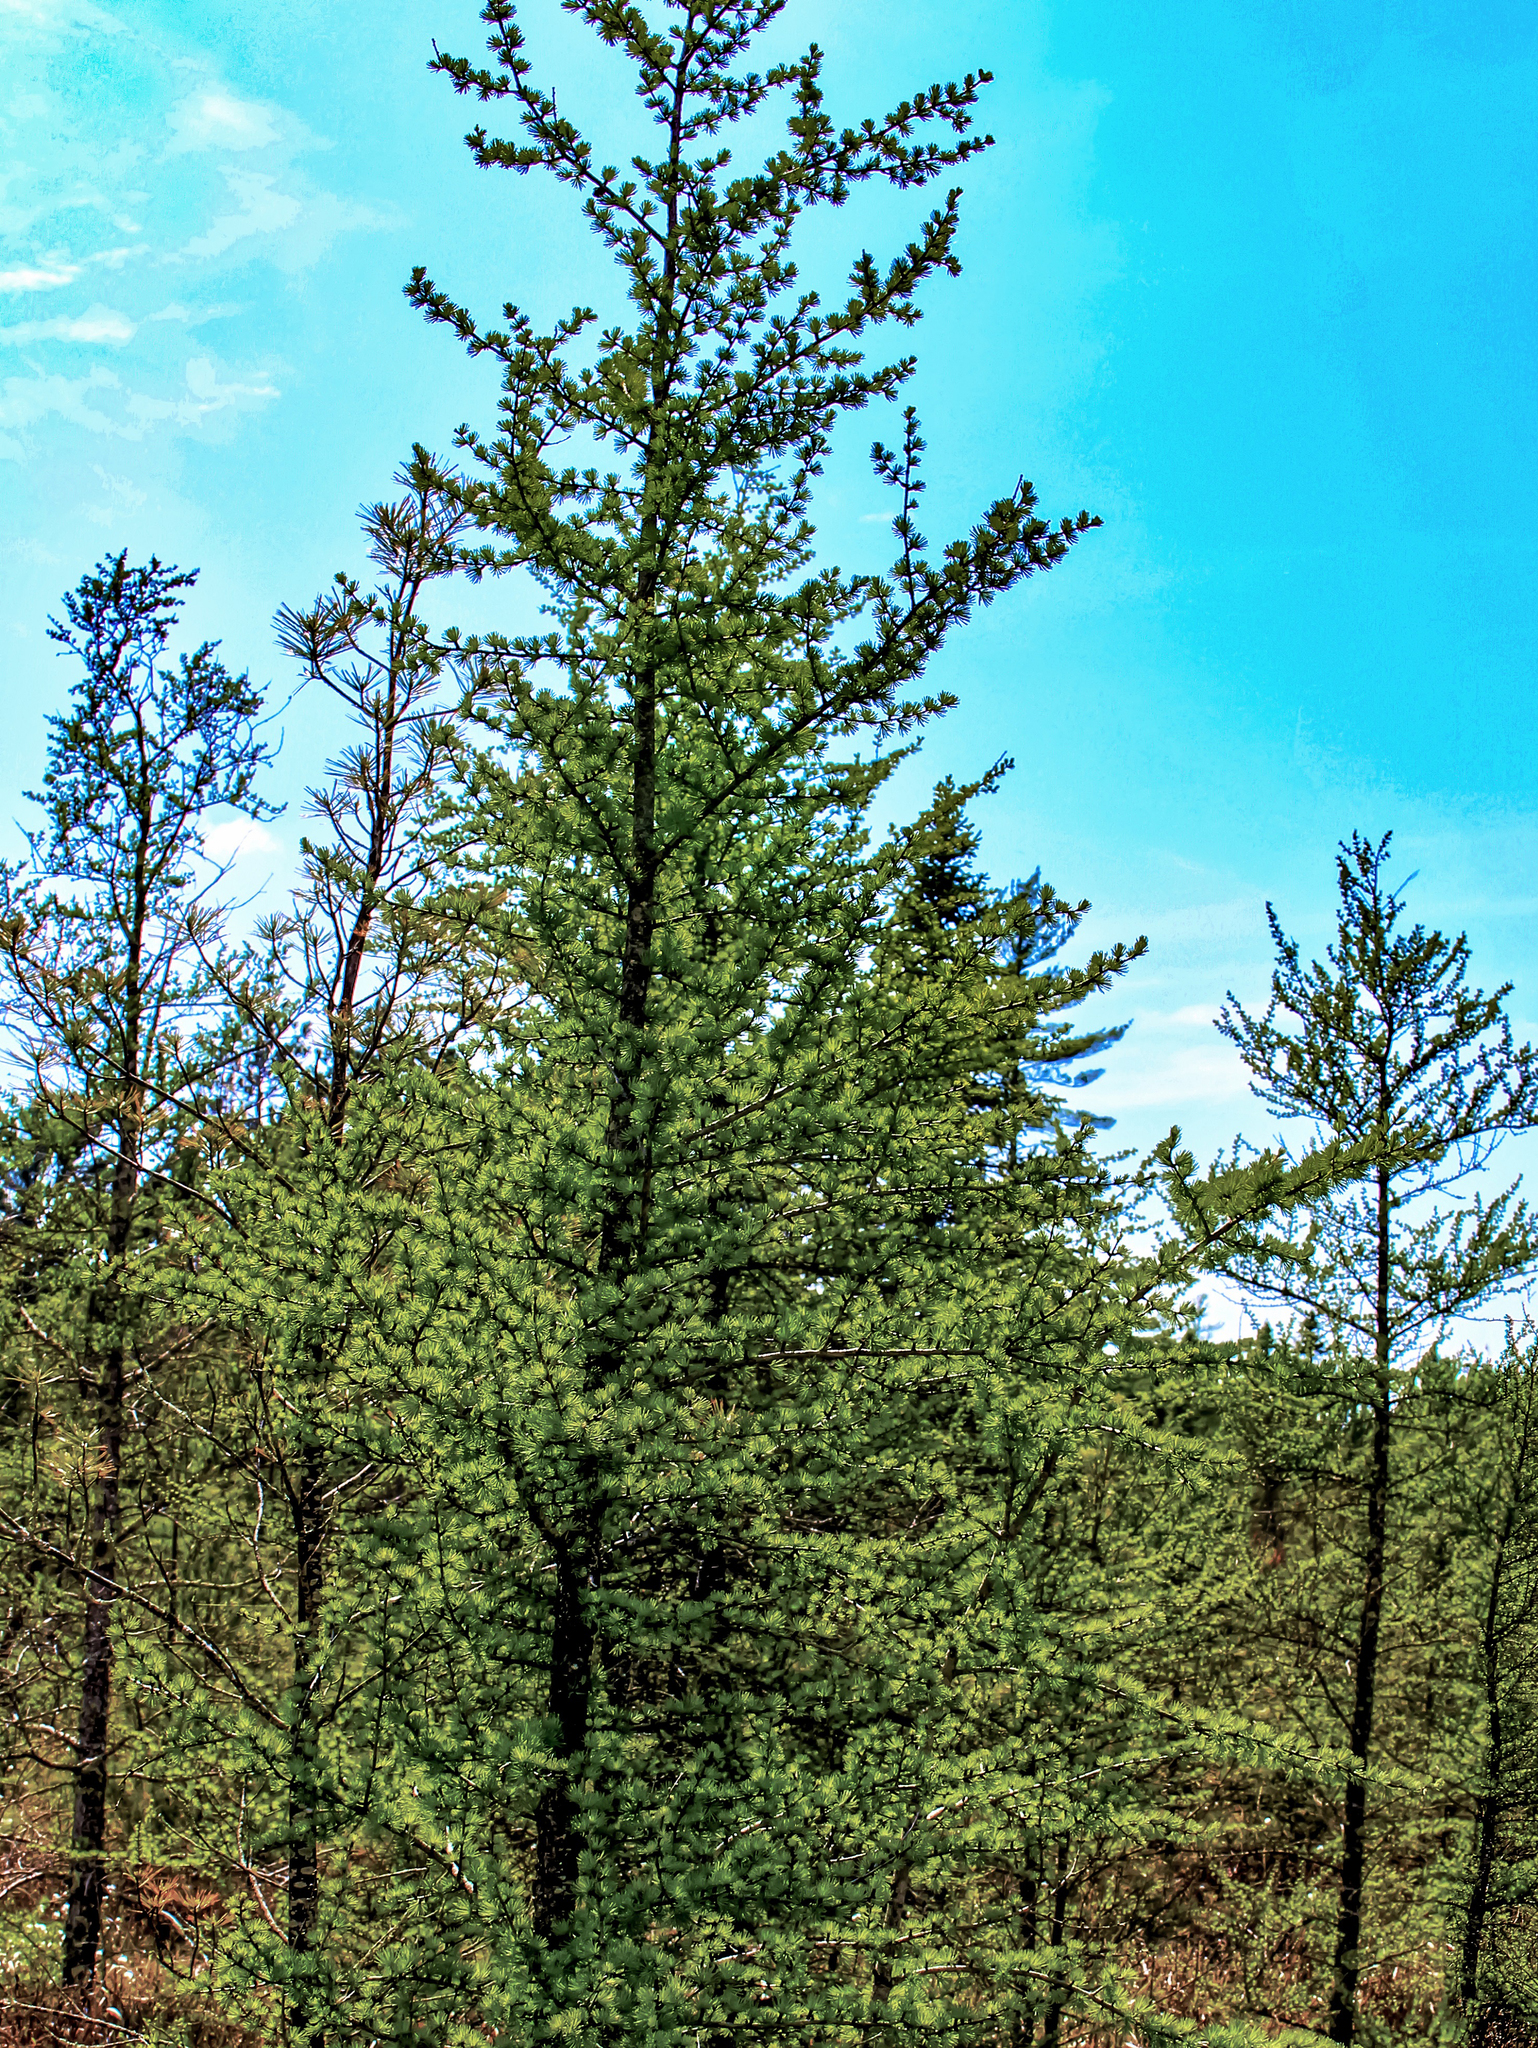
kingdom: Plantae
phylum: Tracheophyta
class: Pinopsida
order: Pinales
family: Pinaceae
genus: Larix
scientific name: Larix laricina
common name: American larch
